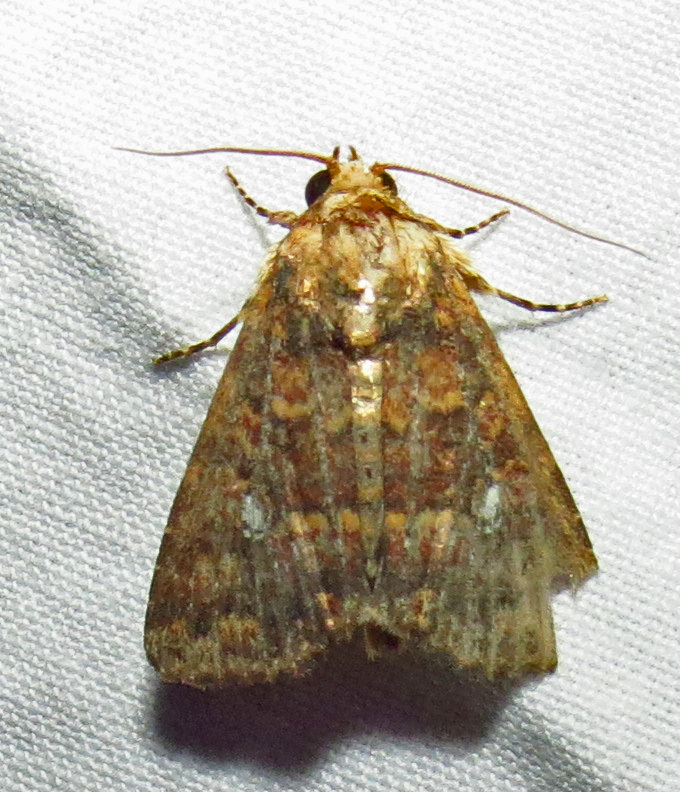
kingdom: Animalia
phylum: Arthropoda
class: Insecta
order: Lepidoptera
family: Noctuidae
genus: Condica
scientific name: Condica mobilis
